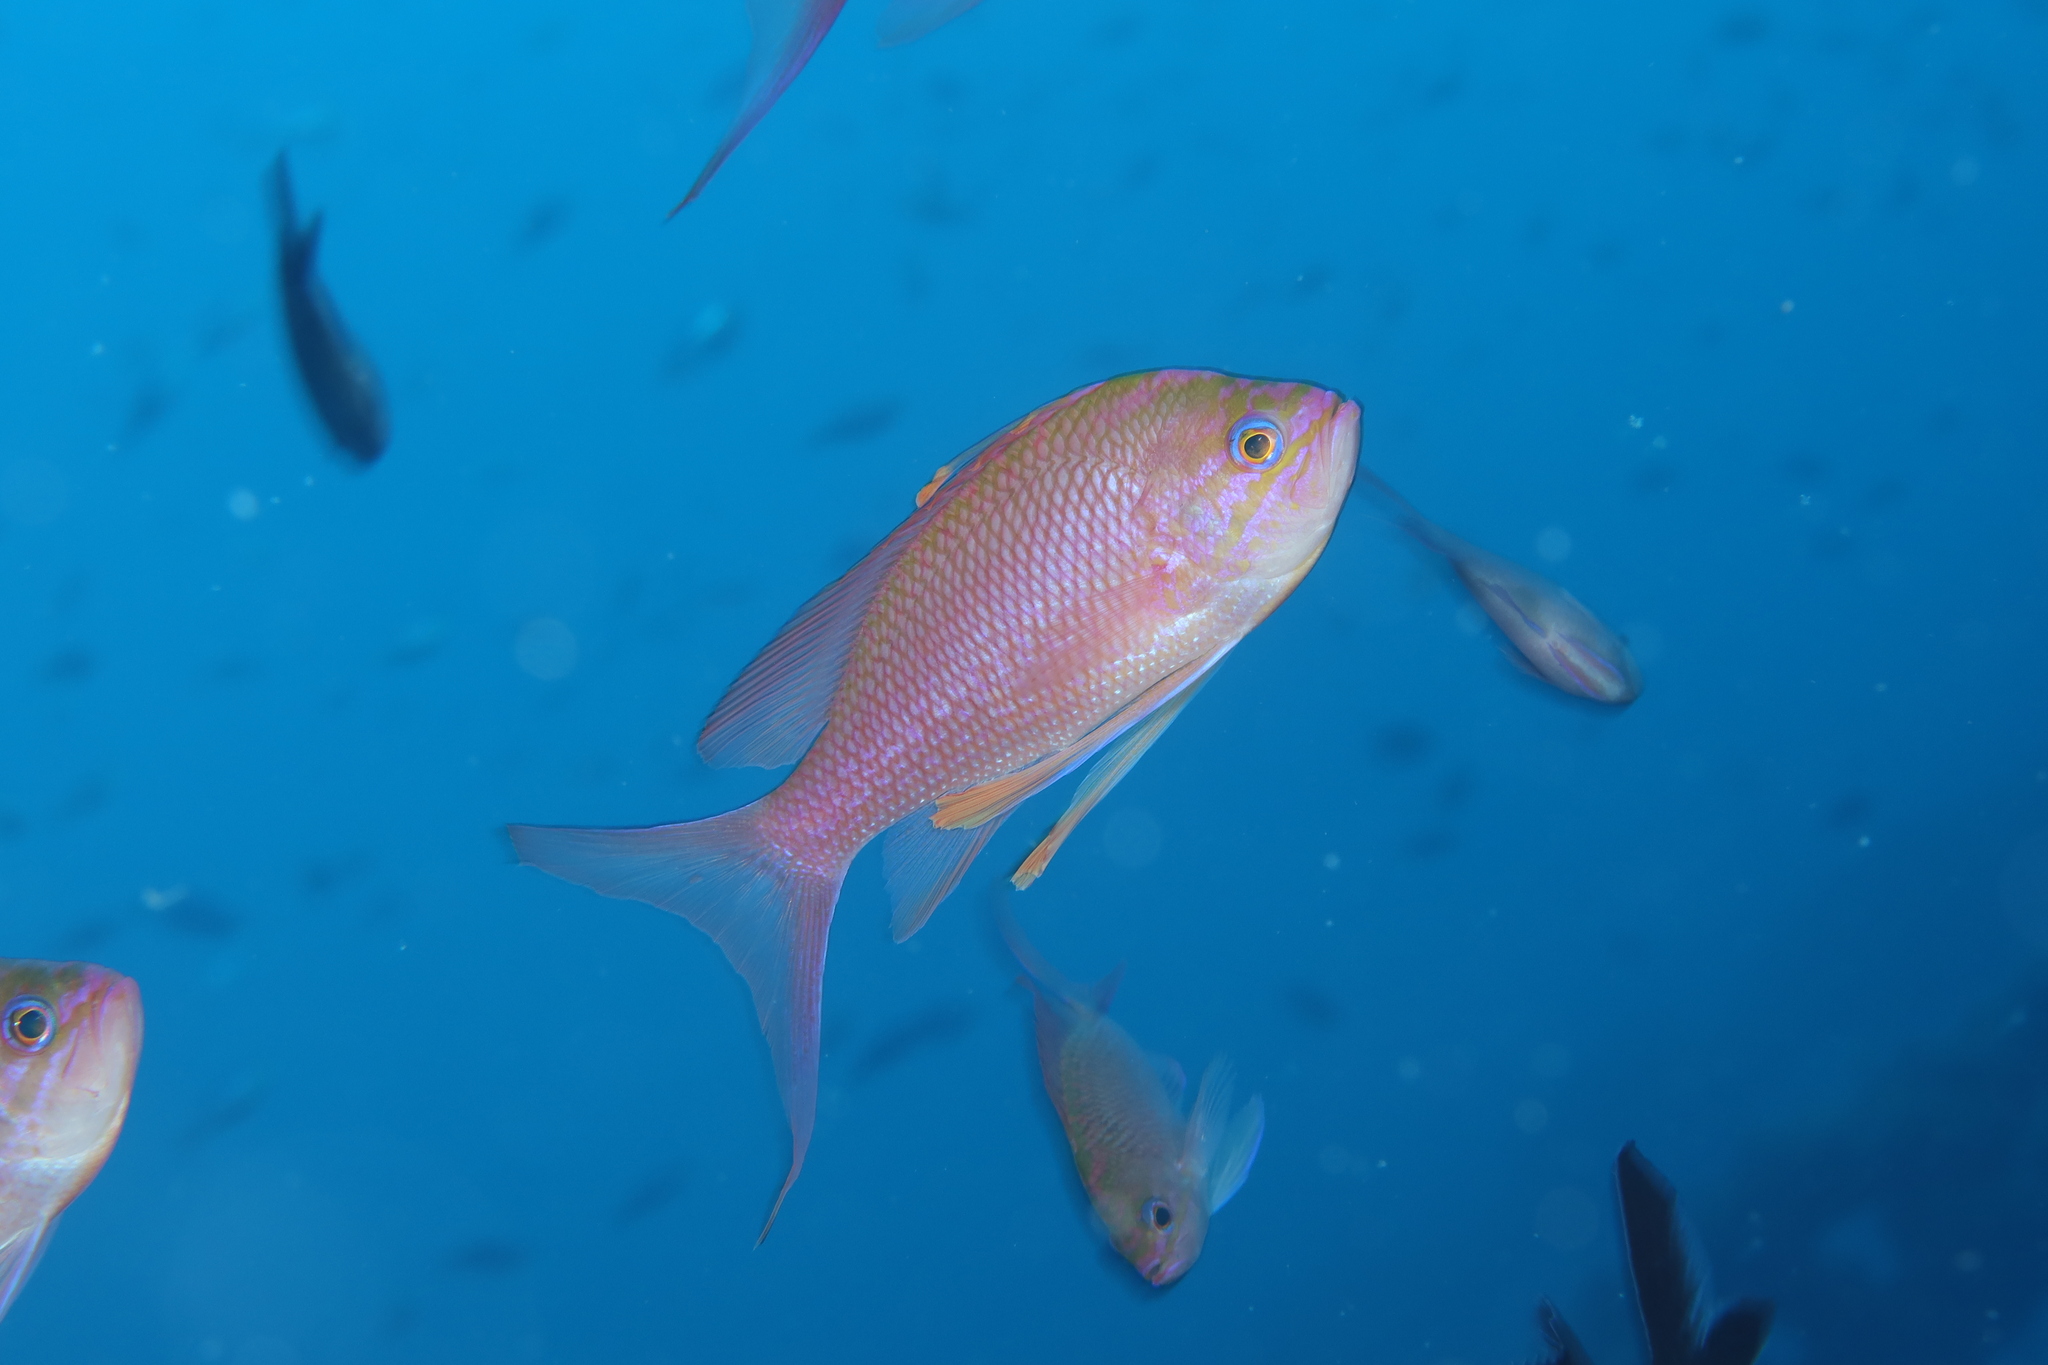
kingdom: Animalia
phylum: Chordata
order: Perciformes
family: Serranidae
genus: Anthias
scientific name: Anthias anthias
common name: Swallowtail seaperch
